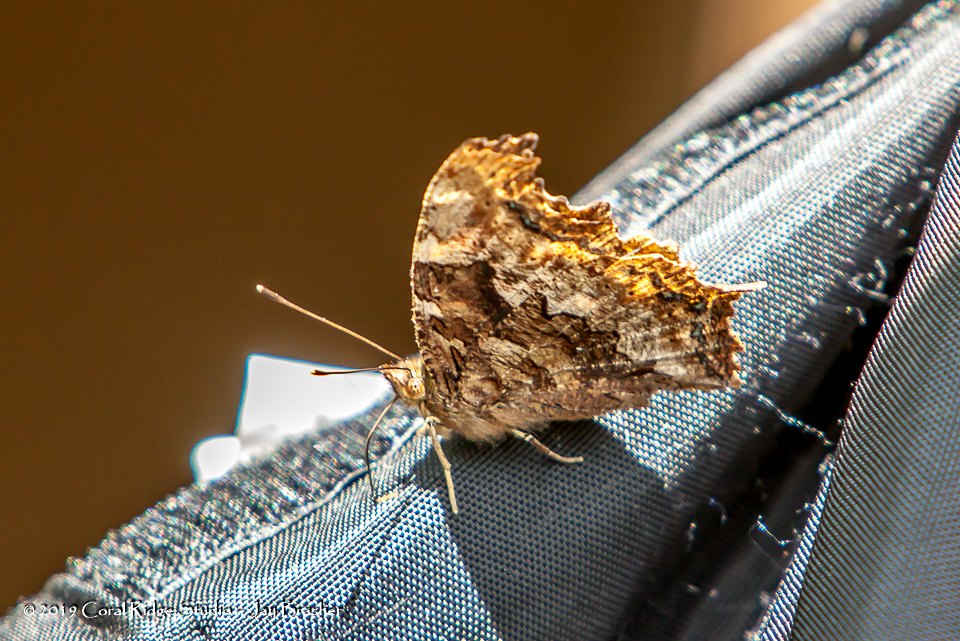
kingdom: Animalia
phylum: Arthropoda
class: Insecta
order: Lepidoptera
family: Nymphalidae
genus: Polygonia
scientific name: Polygonia vaualbum
